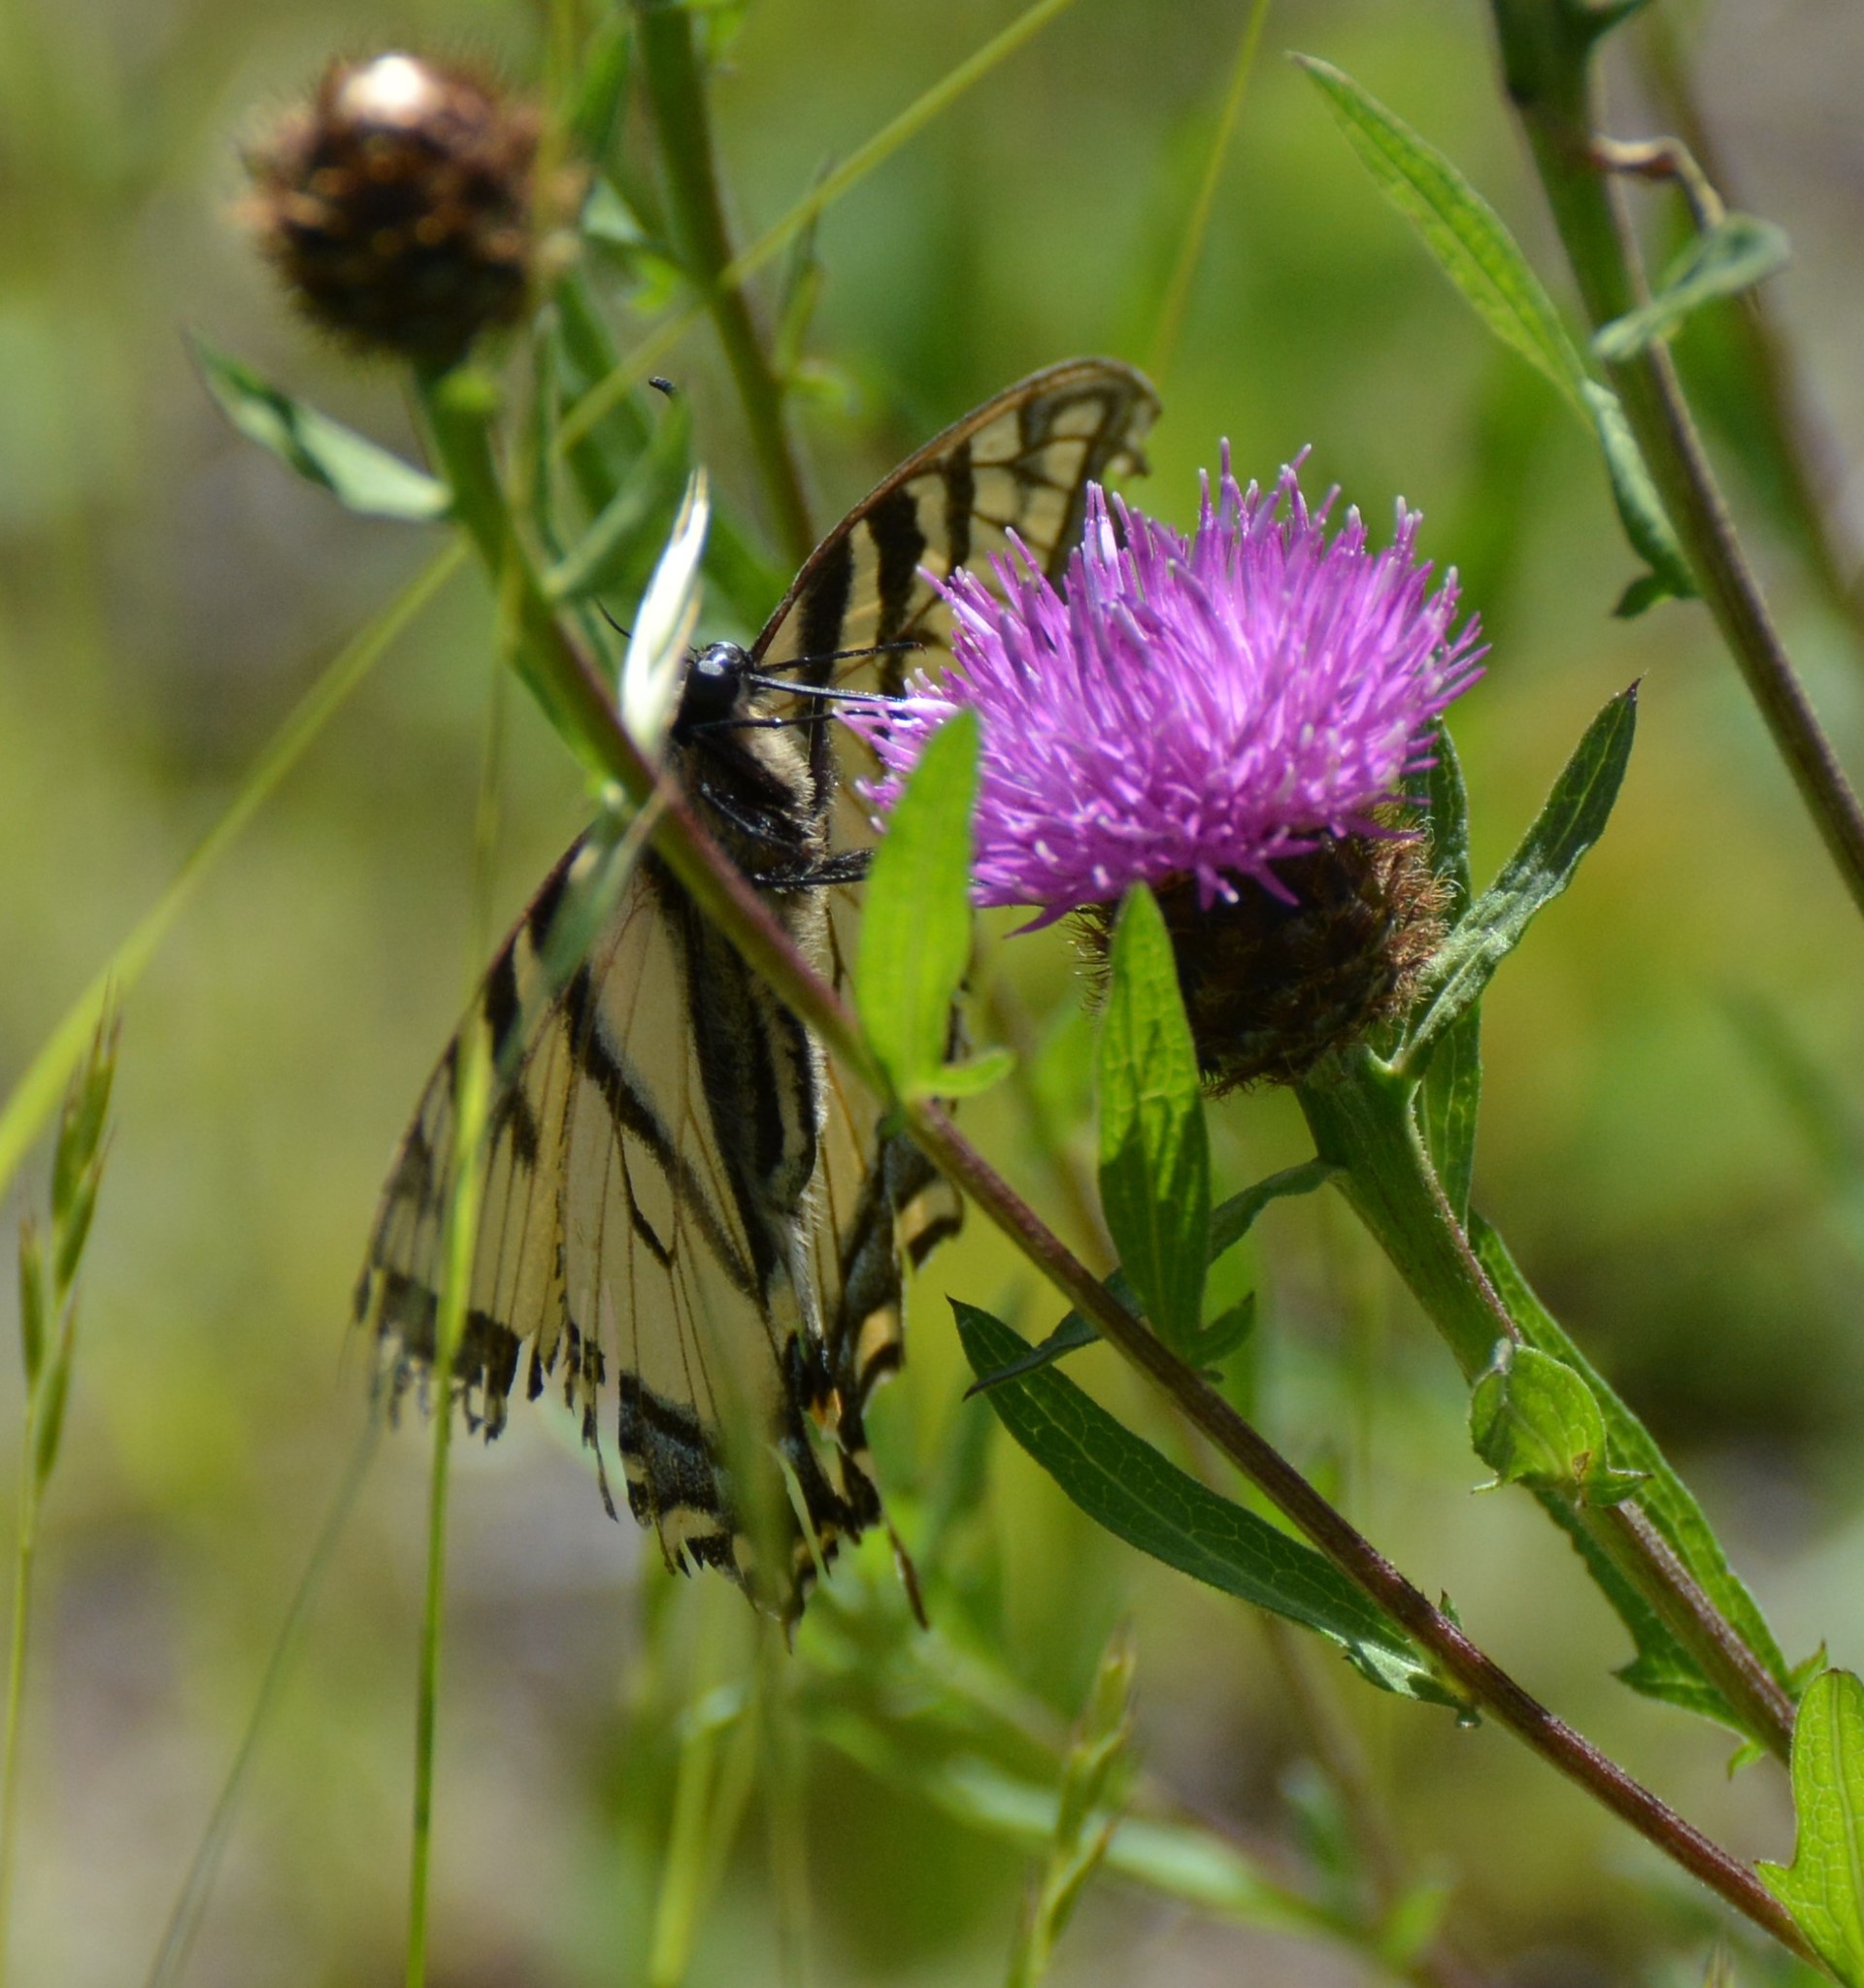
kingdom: Animalia
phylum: Arthropoda
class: Insecta
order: Lepidoptera
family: Papilionidae
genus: Papilio
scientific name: Papilio canadensis
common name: Canadian tiger swallowtail
